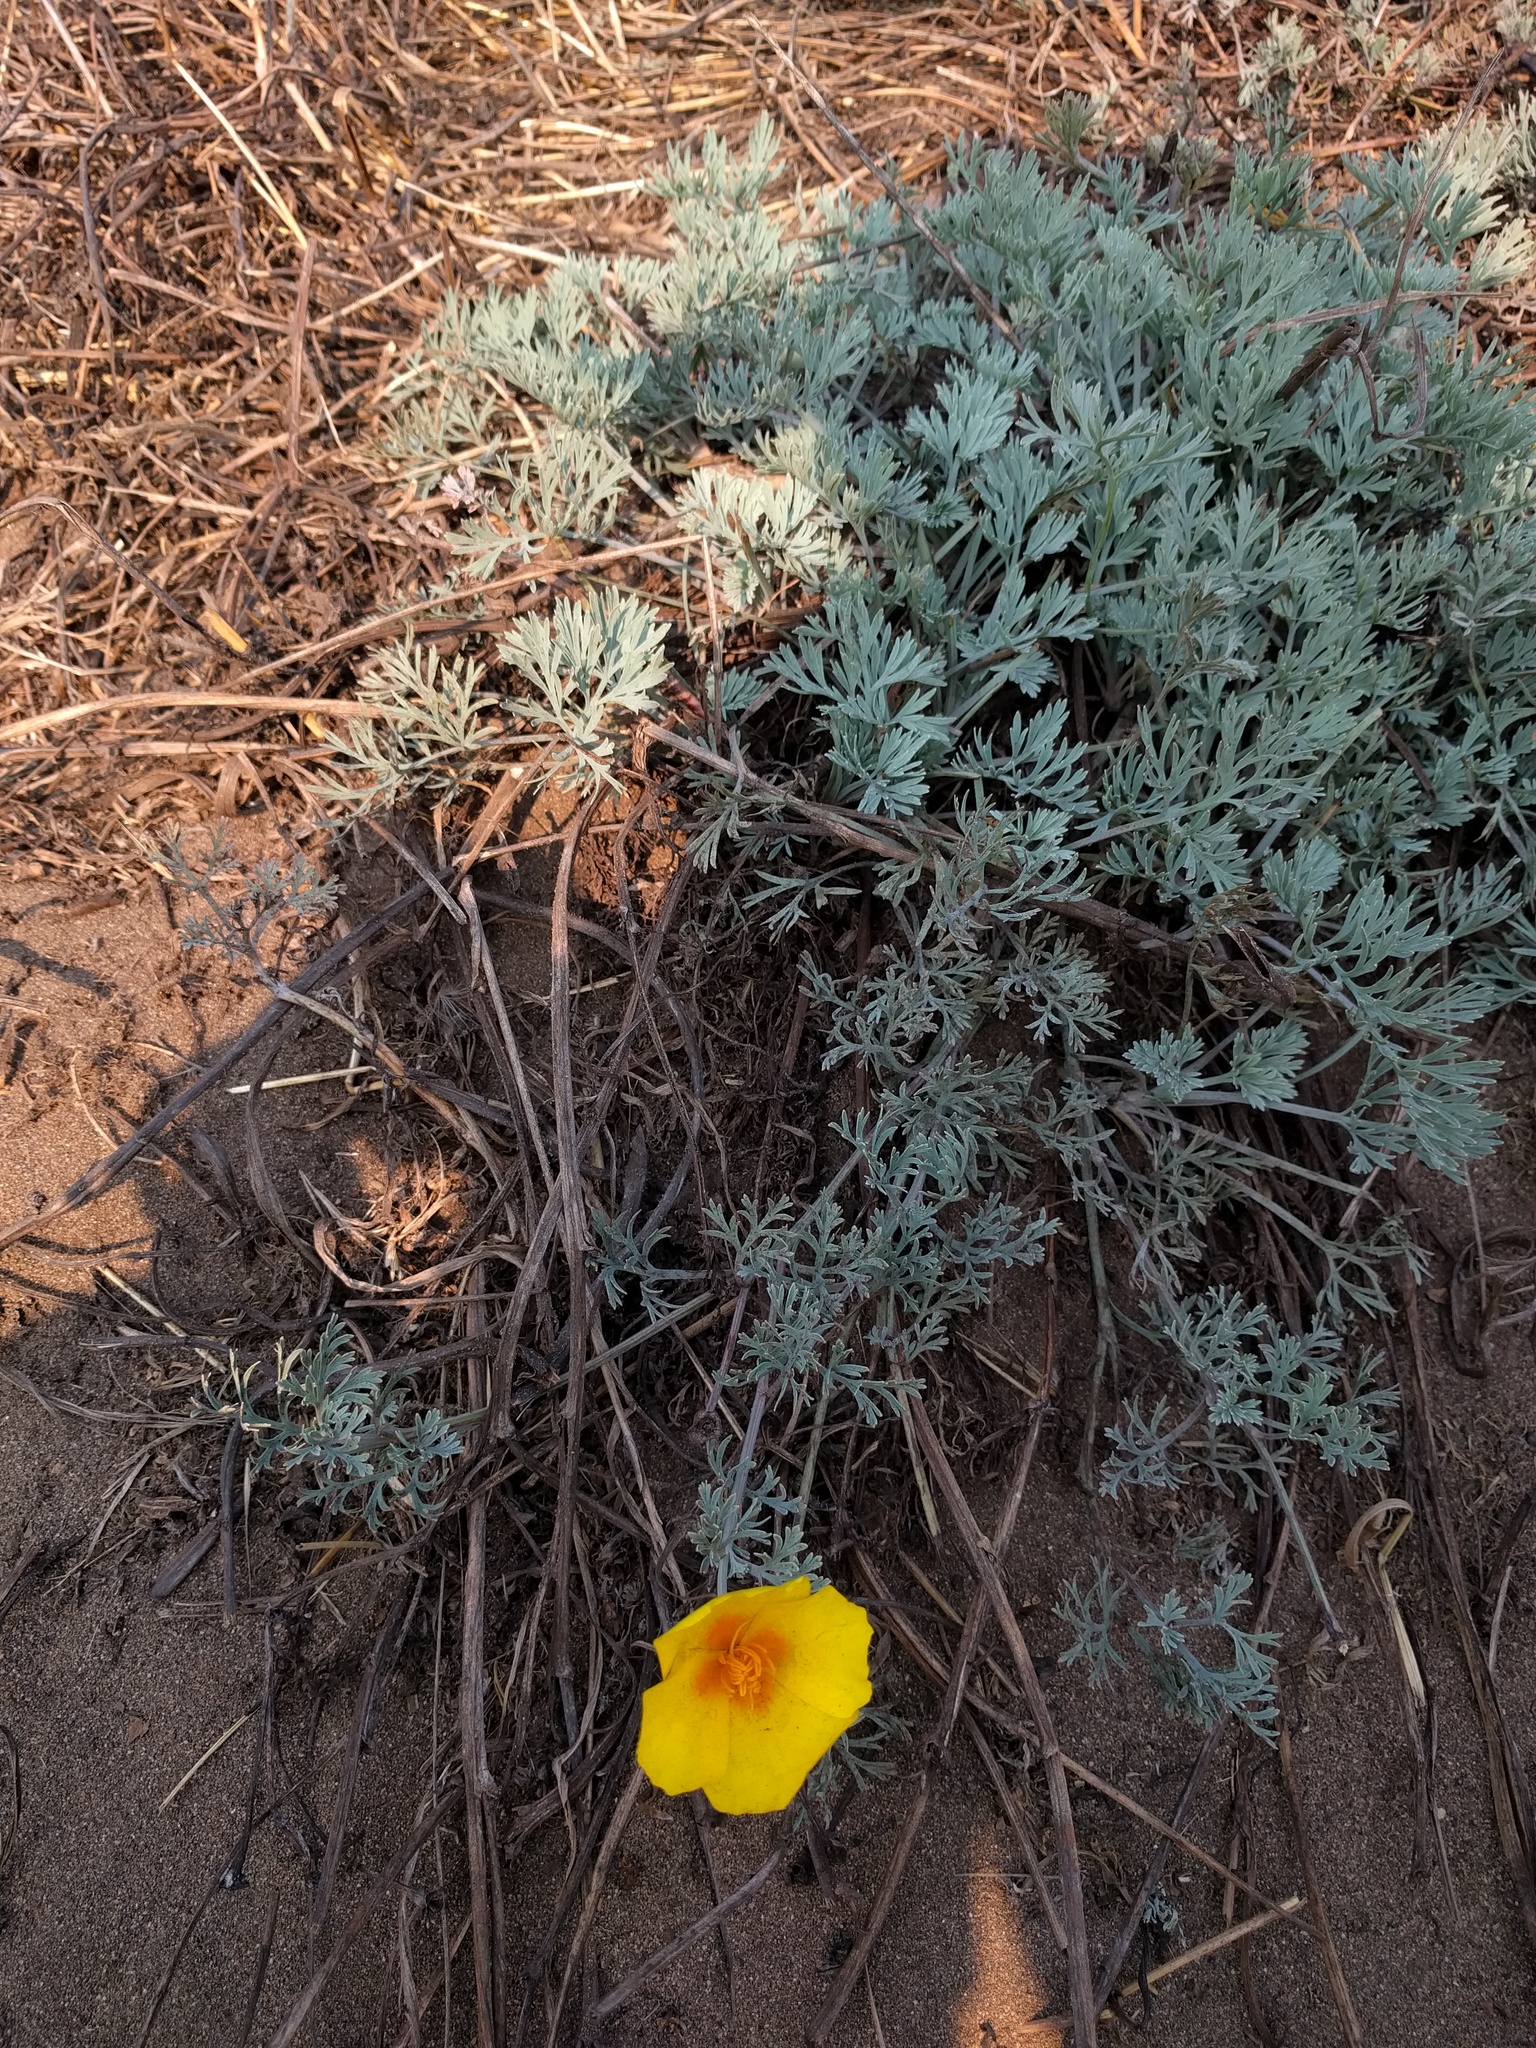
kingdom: Plantae
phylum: Tracheophyta
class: Magnoliopsida
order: Ranunculales
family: Papaveraceae
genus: Eschscholzia
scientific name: Eschscholzia californica
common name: California poppy
